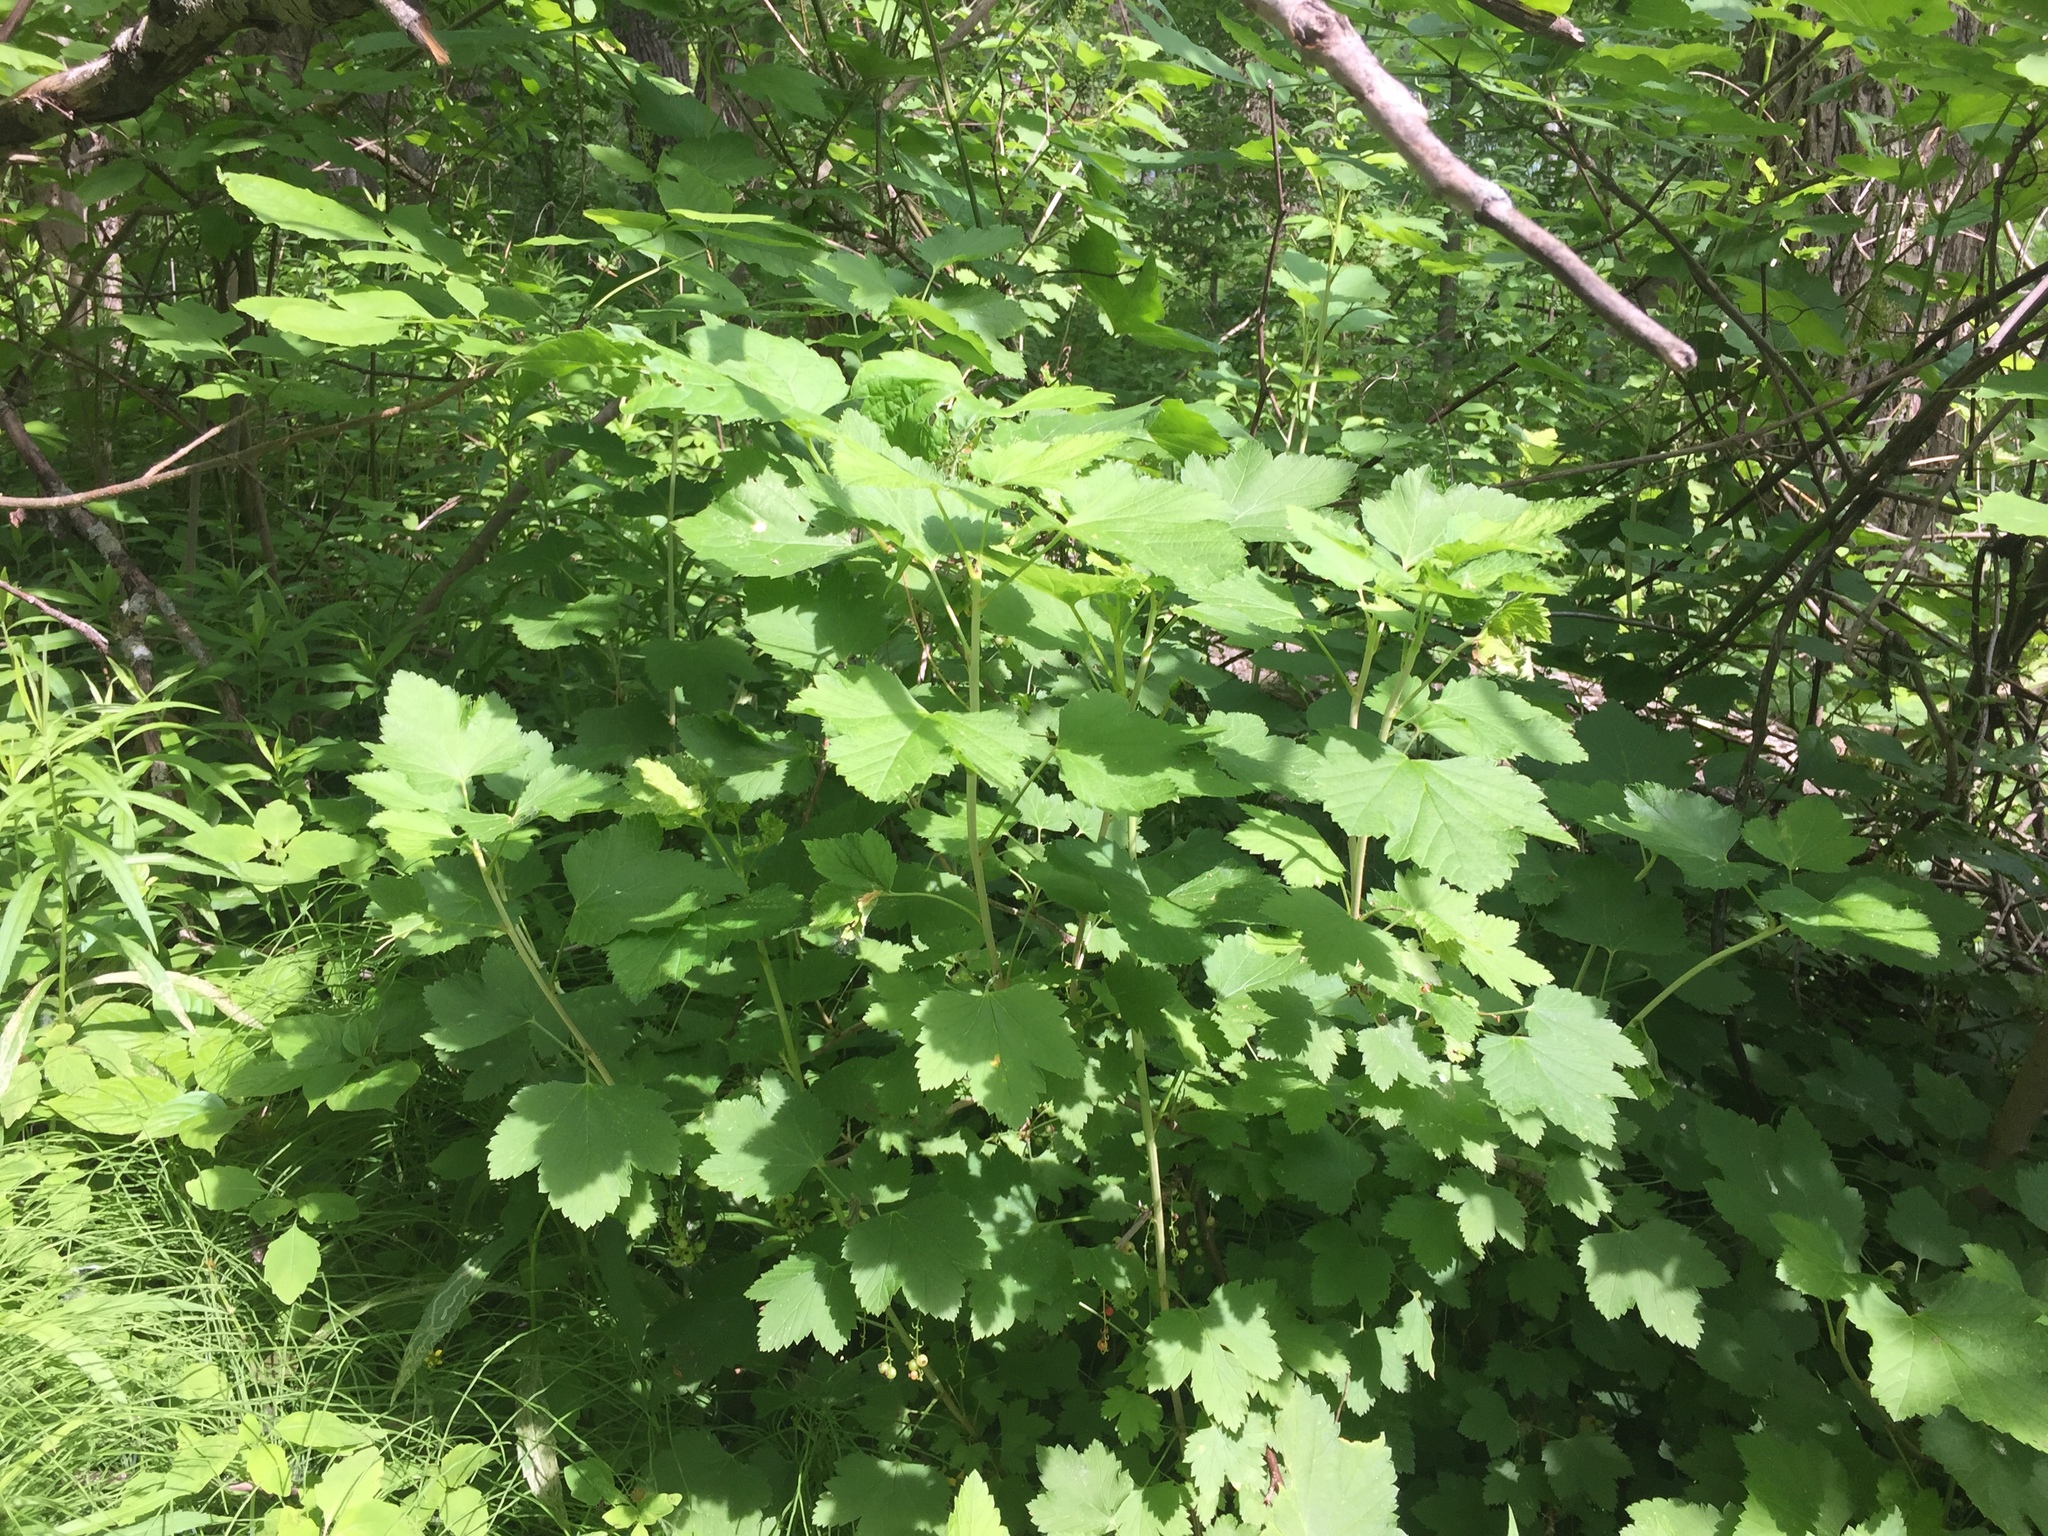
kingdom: Plantae
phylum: Tracheophyta
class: Magnoliopsida
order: Saxifragales
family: Grossulariaceae
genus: Ribes
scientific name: Ribes rubrum
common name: Red currant
